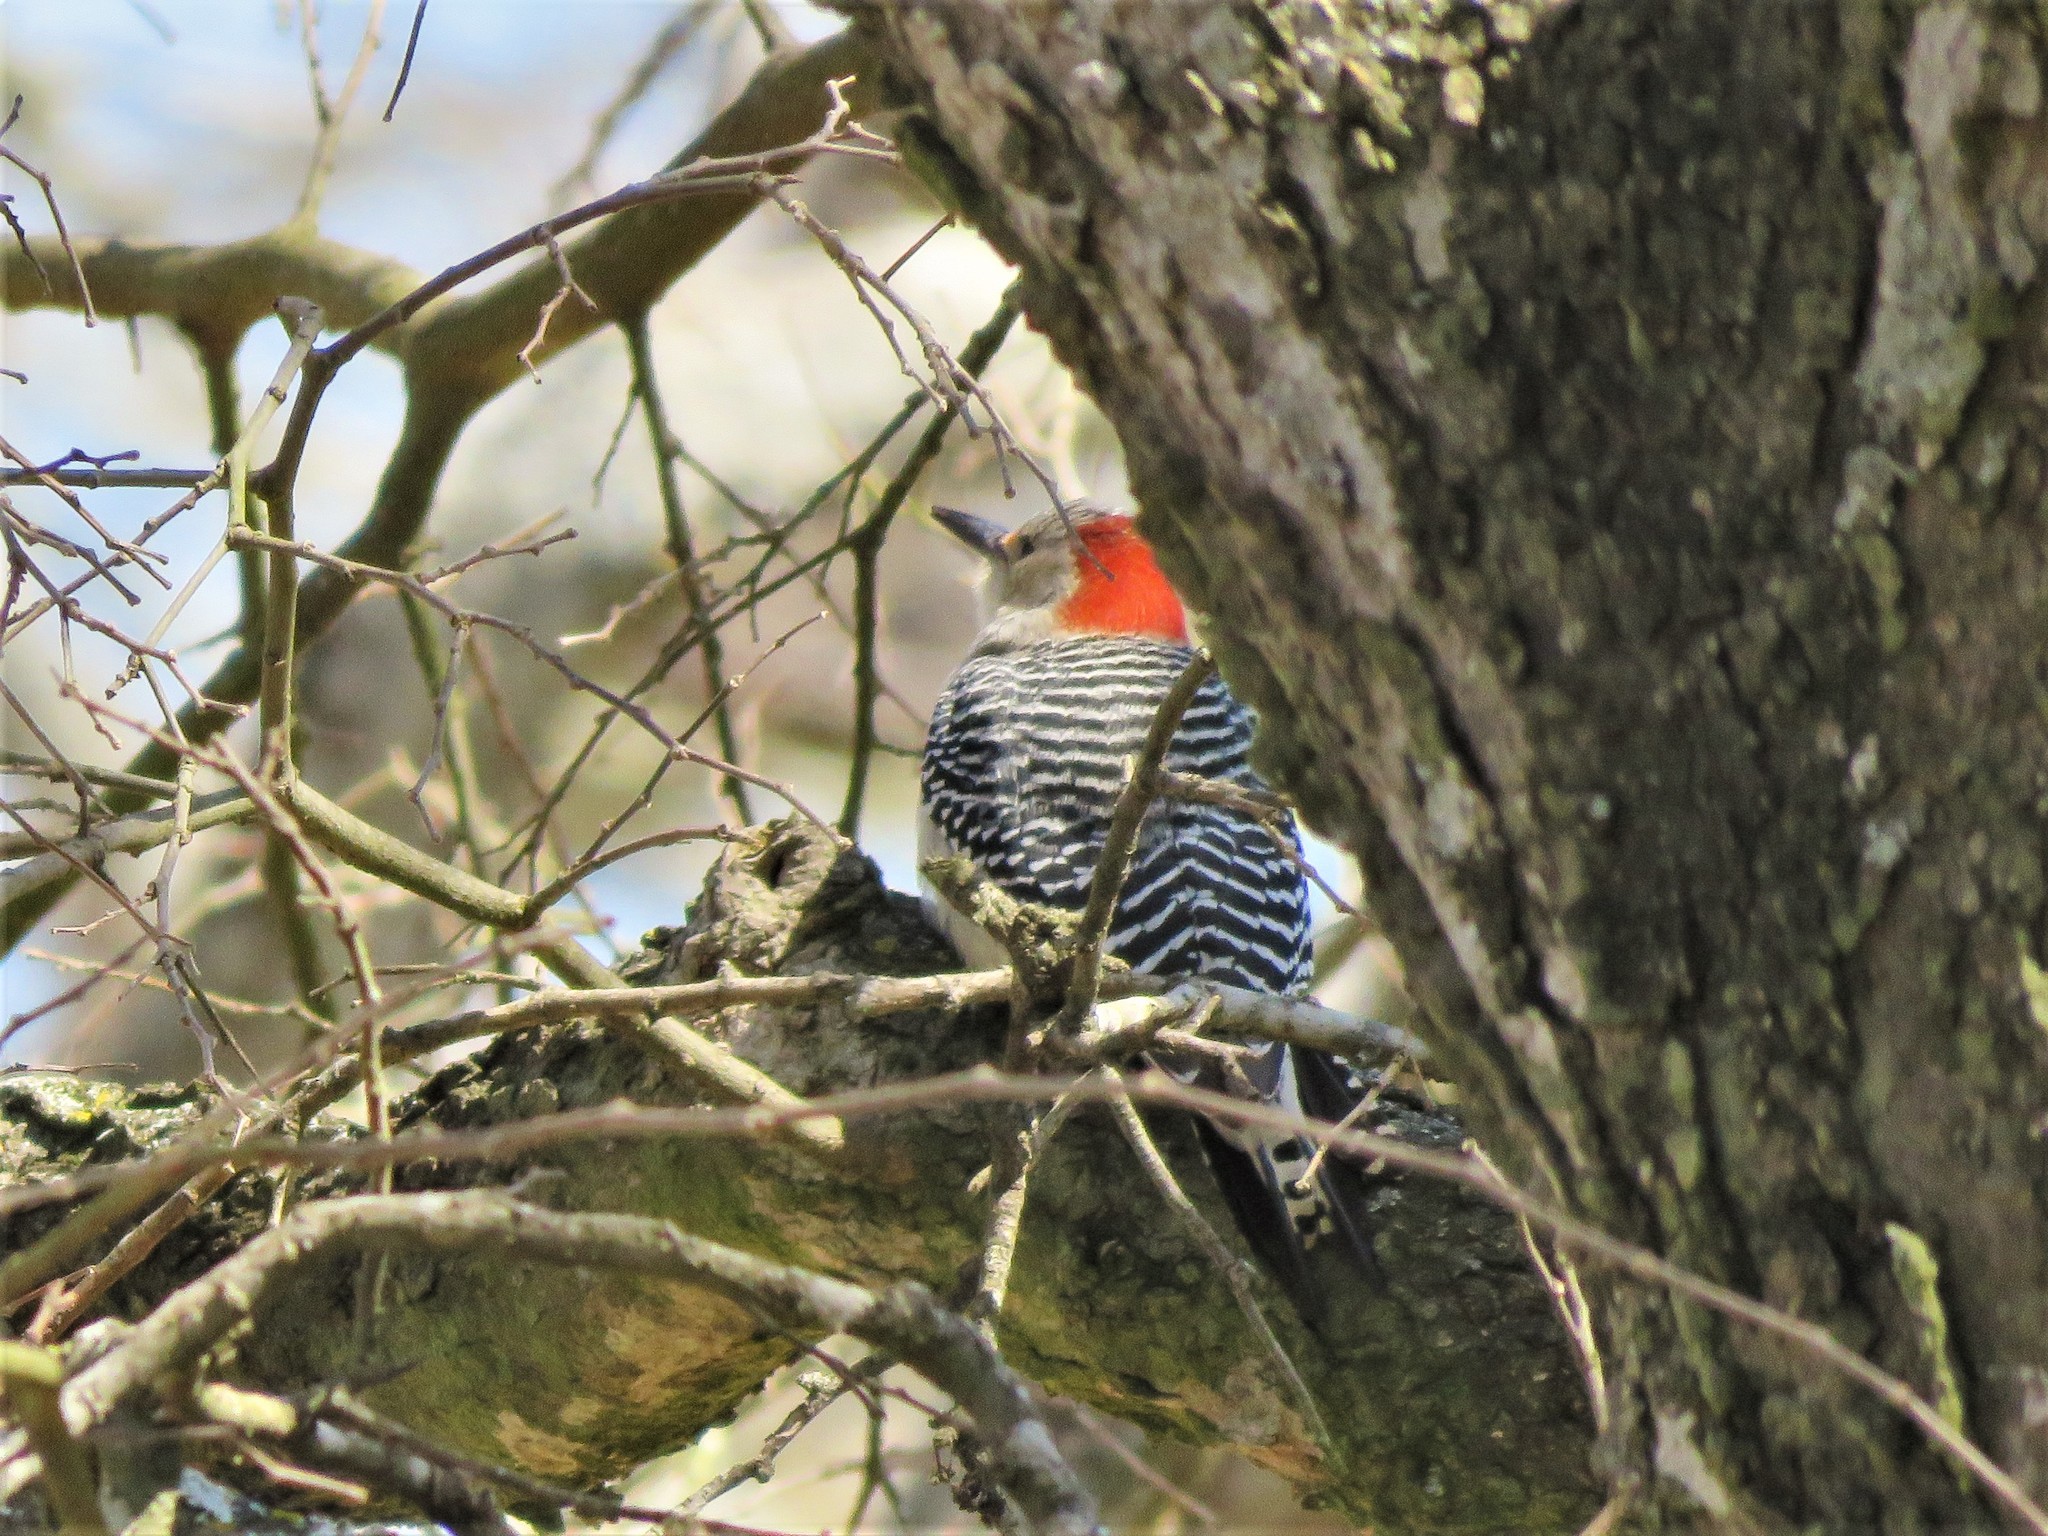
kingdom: Animalia
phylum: Chordata
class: Aves
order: Piciformes
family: Picidae
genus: Melanerpes
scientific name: Melanerpes carolinus
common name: Red-bellied woodpecker
